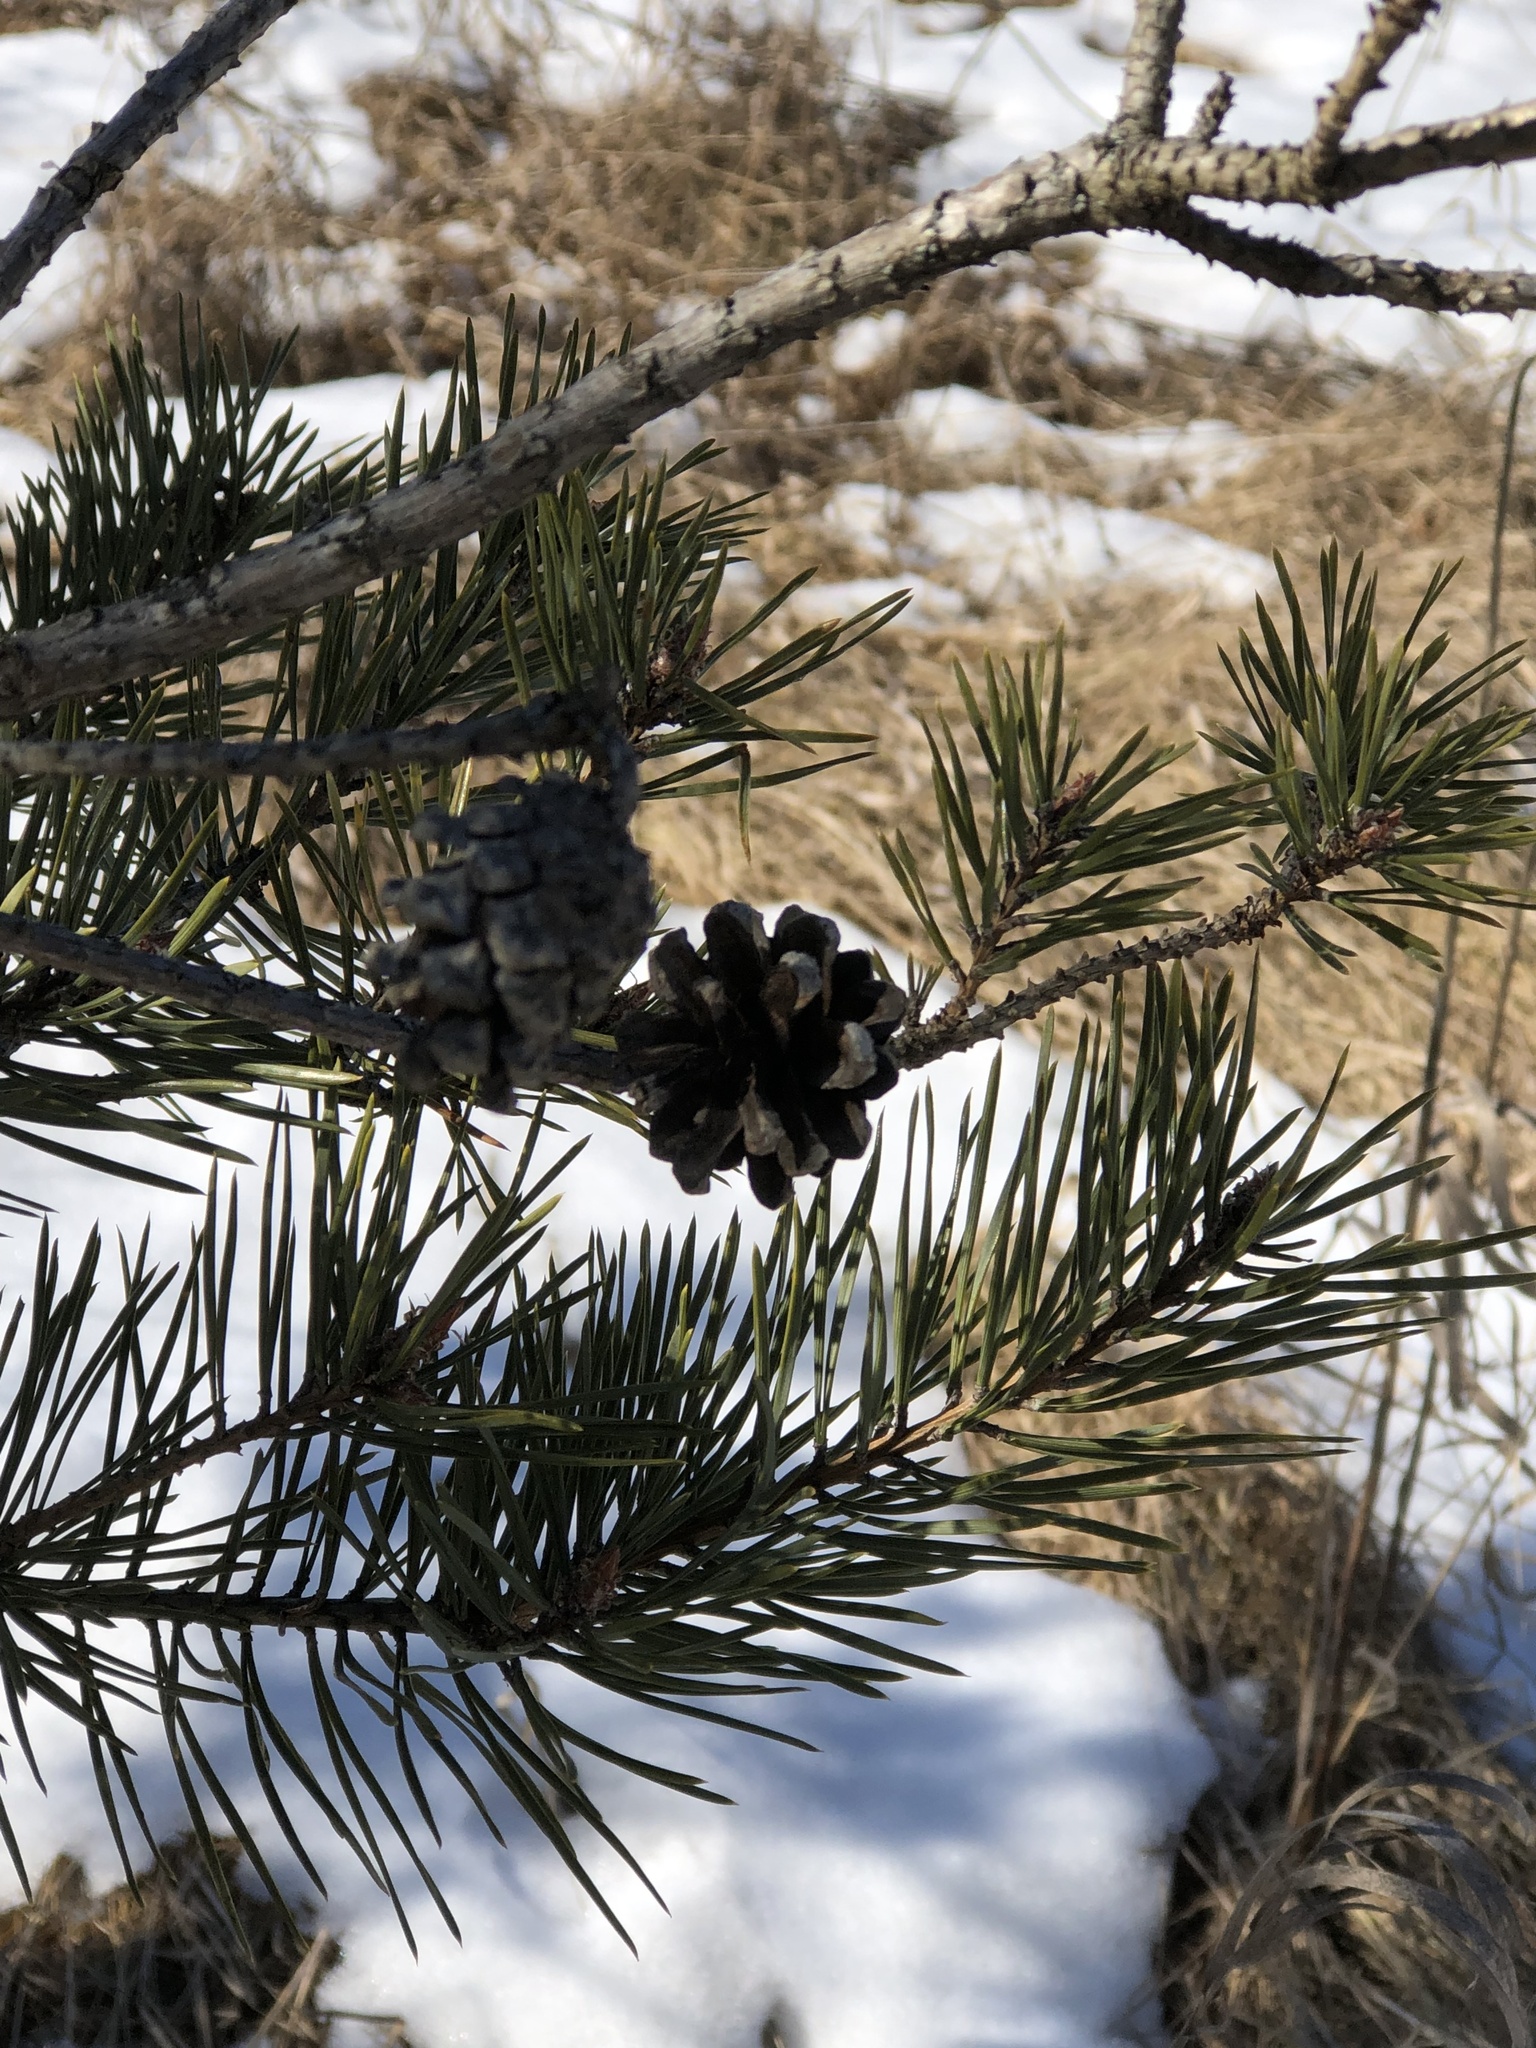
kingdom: Plantae
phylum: Tracheophyta
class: Pinopsida
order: Pinales
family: Pinaceae
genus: Pinus
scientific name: Pinus banksiana
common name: Jack pine
